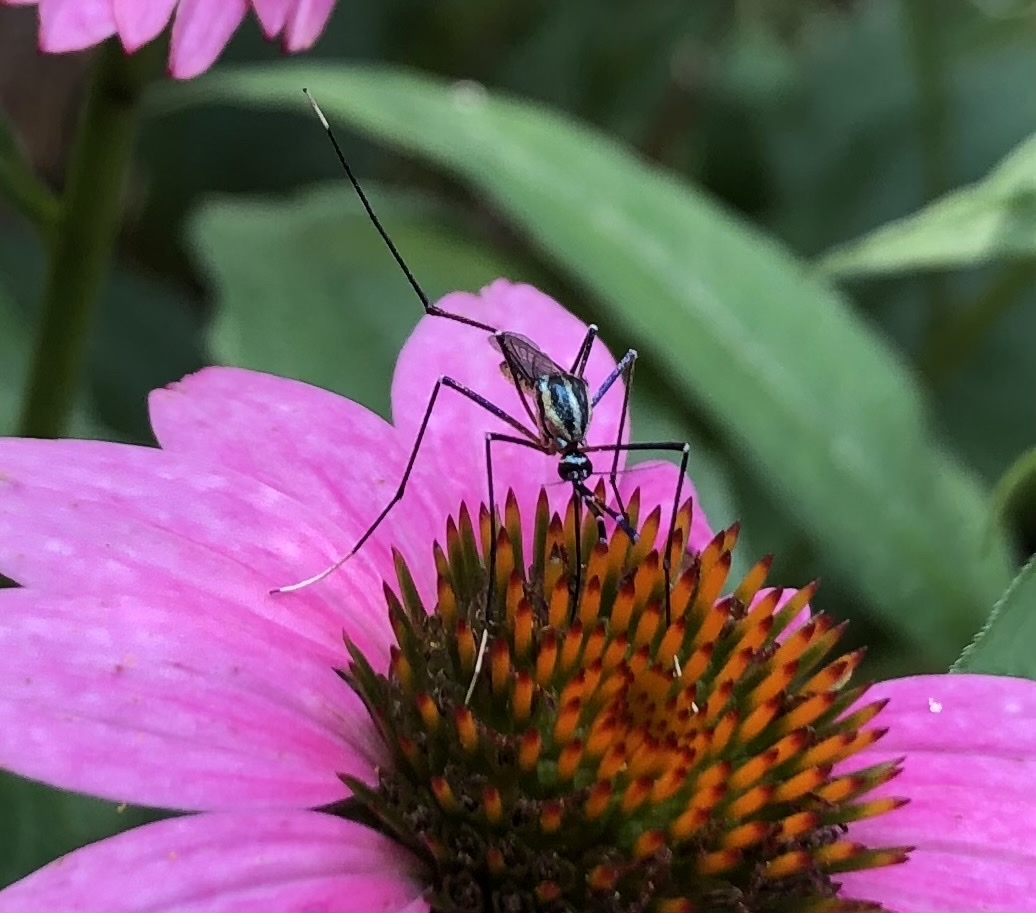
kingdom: Animalia
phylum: Arthropoda
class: Insecta
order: Diptera
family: Culicidae
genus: Toxorhynchites
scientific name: Toxorhynchites rutilus
